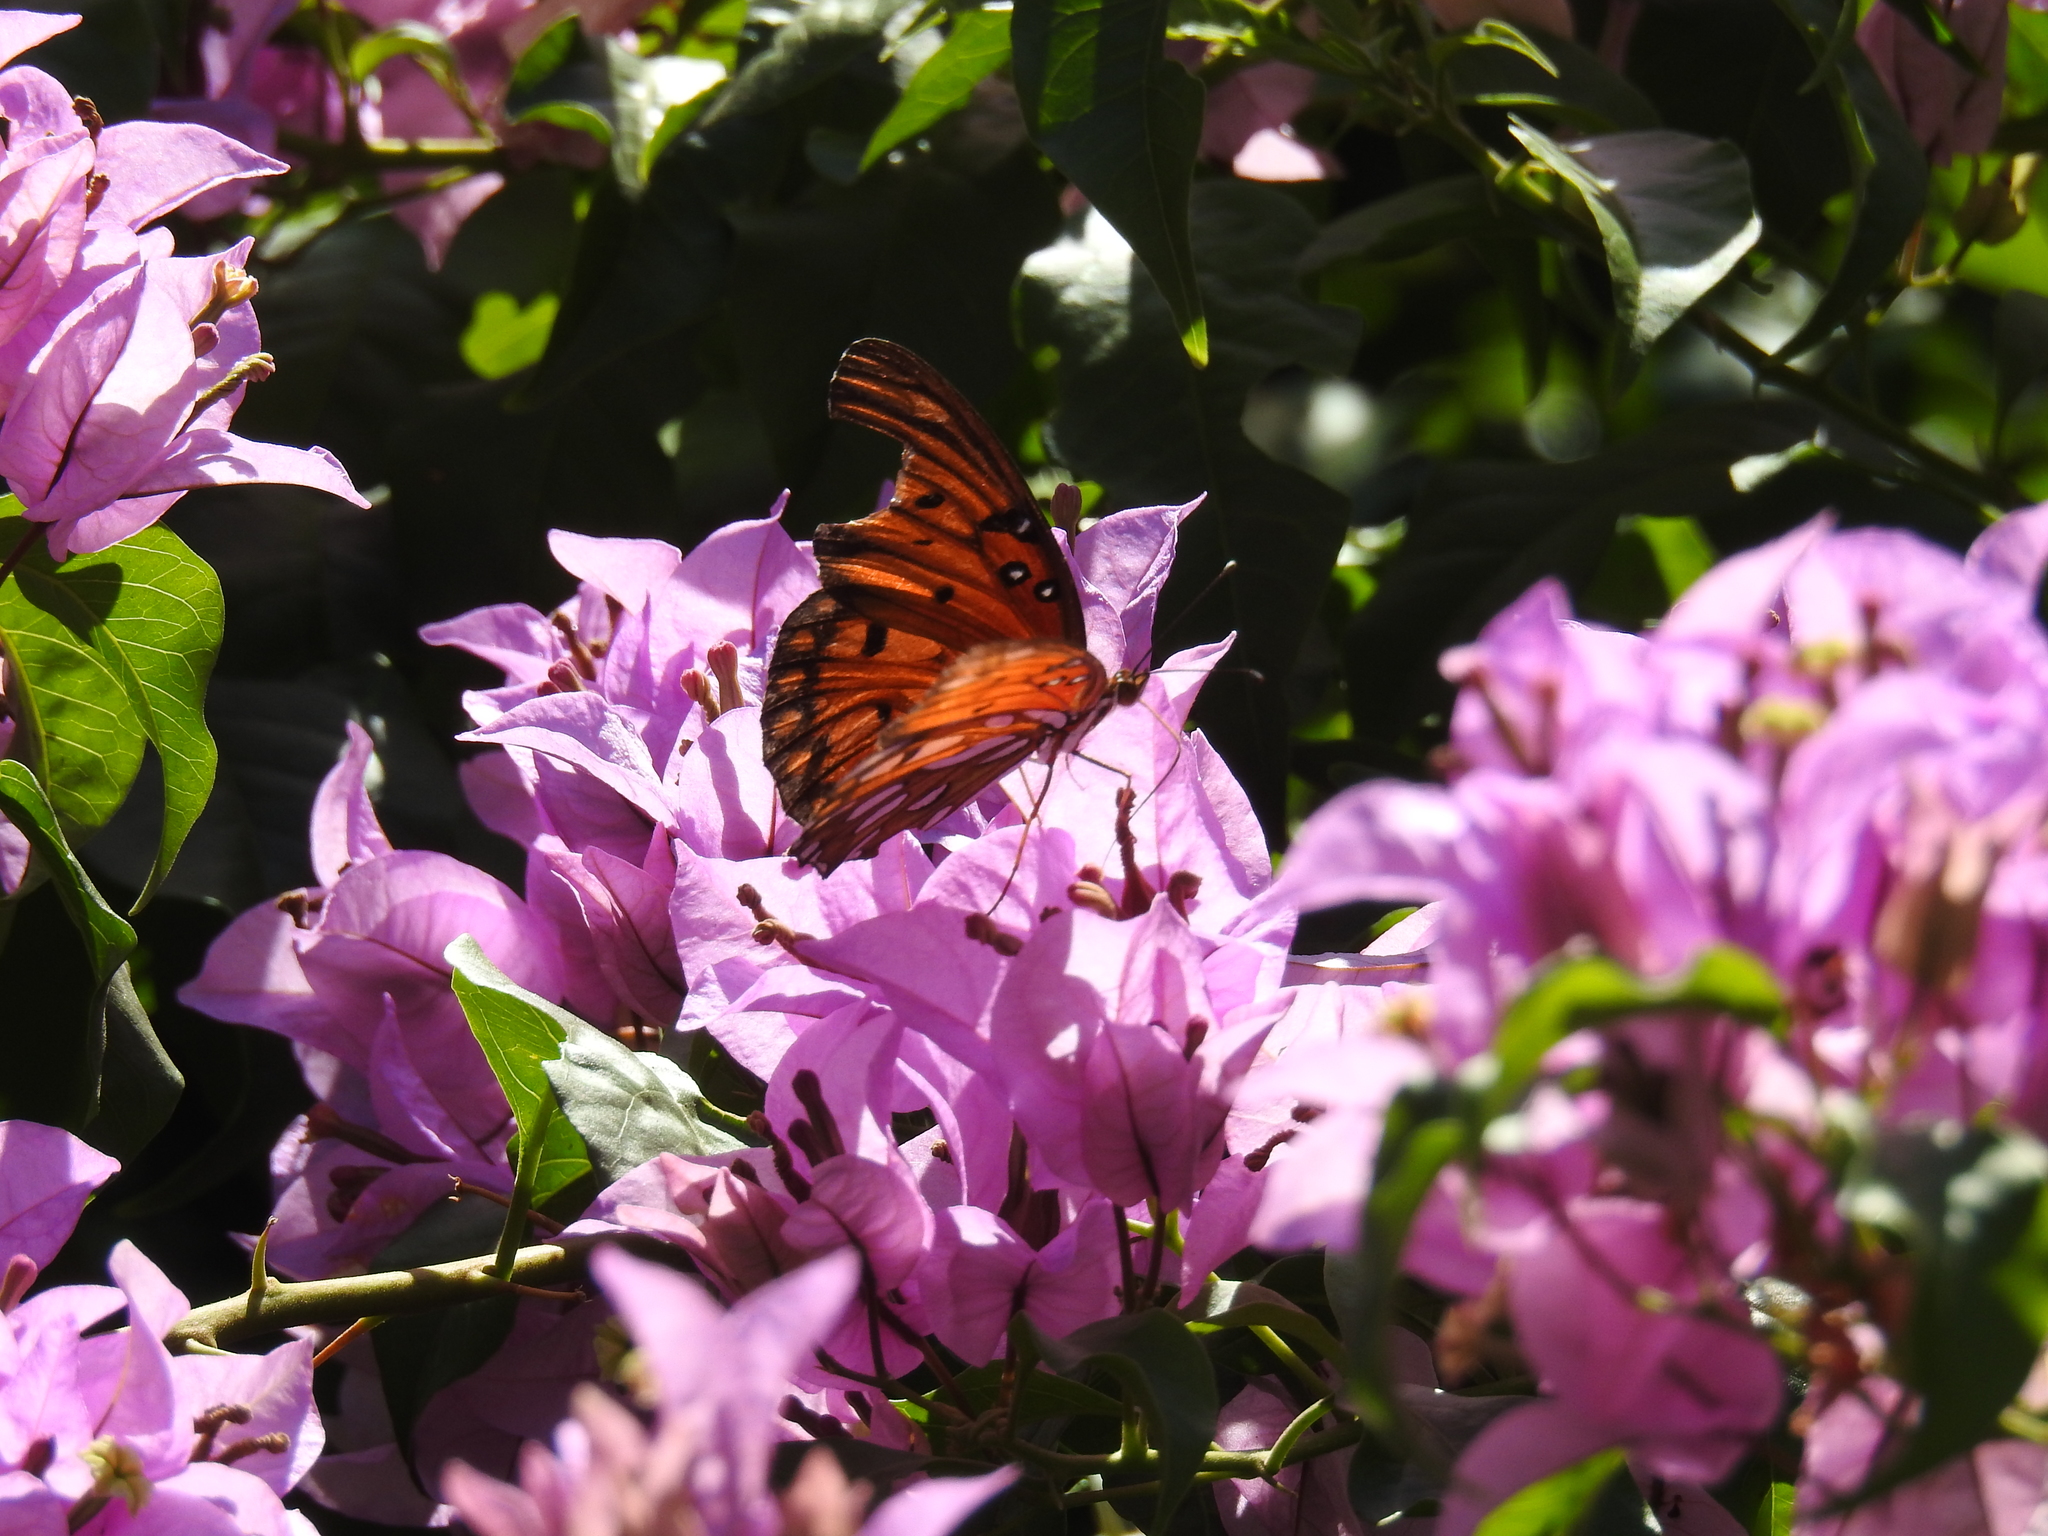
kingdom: Animalia
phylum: Arthropoda
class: Insecta
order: Lepidoptera
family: Nymphalidae
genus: Dione
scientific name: Dione vanillae
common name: Gulf fritillary
